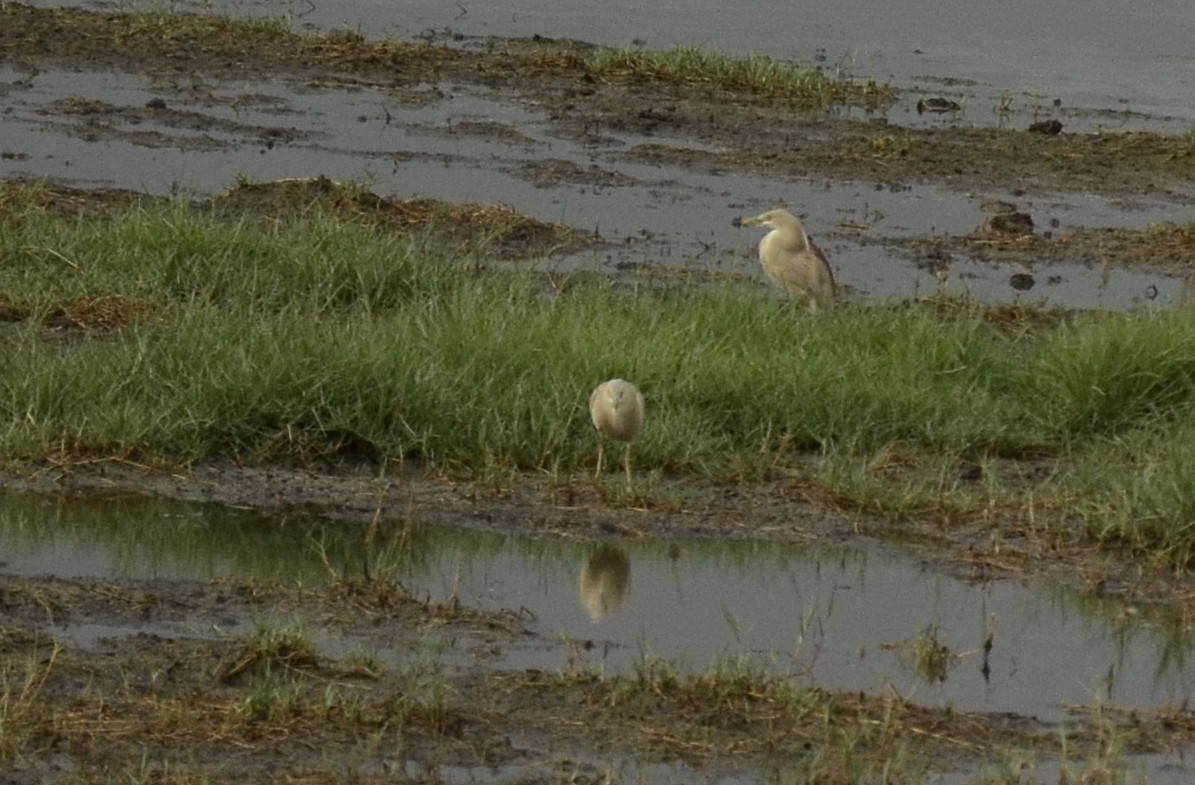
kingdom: Animalia
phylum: Chordata
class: Aves
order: Pelecaniformes
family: Ardeidae
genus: Ardeola
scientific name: Ardeola grayii
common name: Indian pond heron
